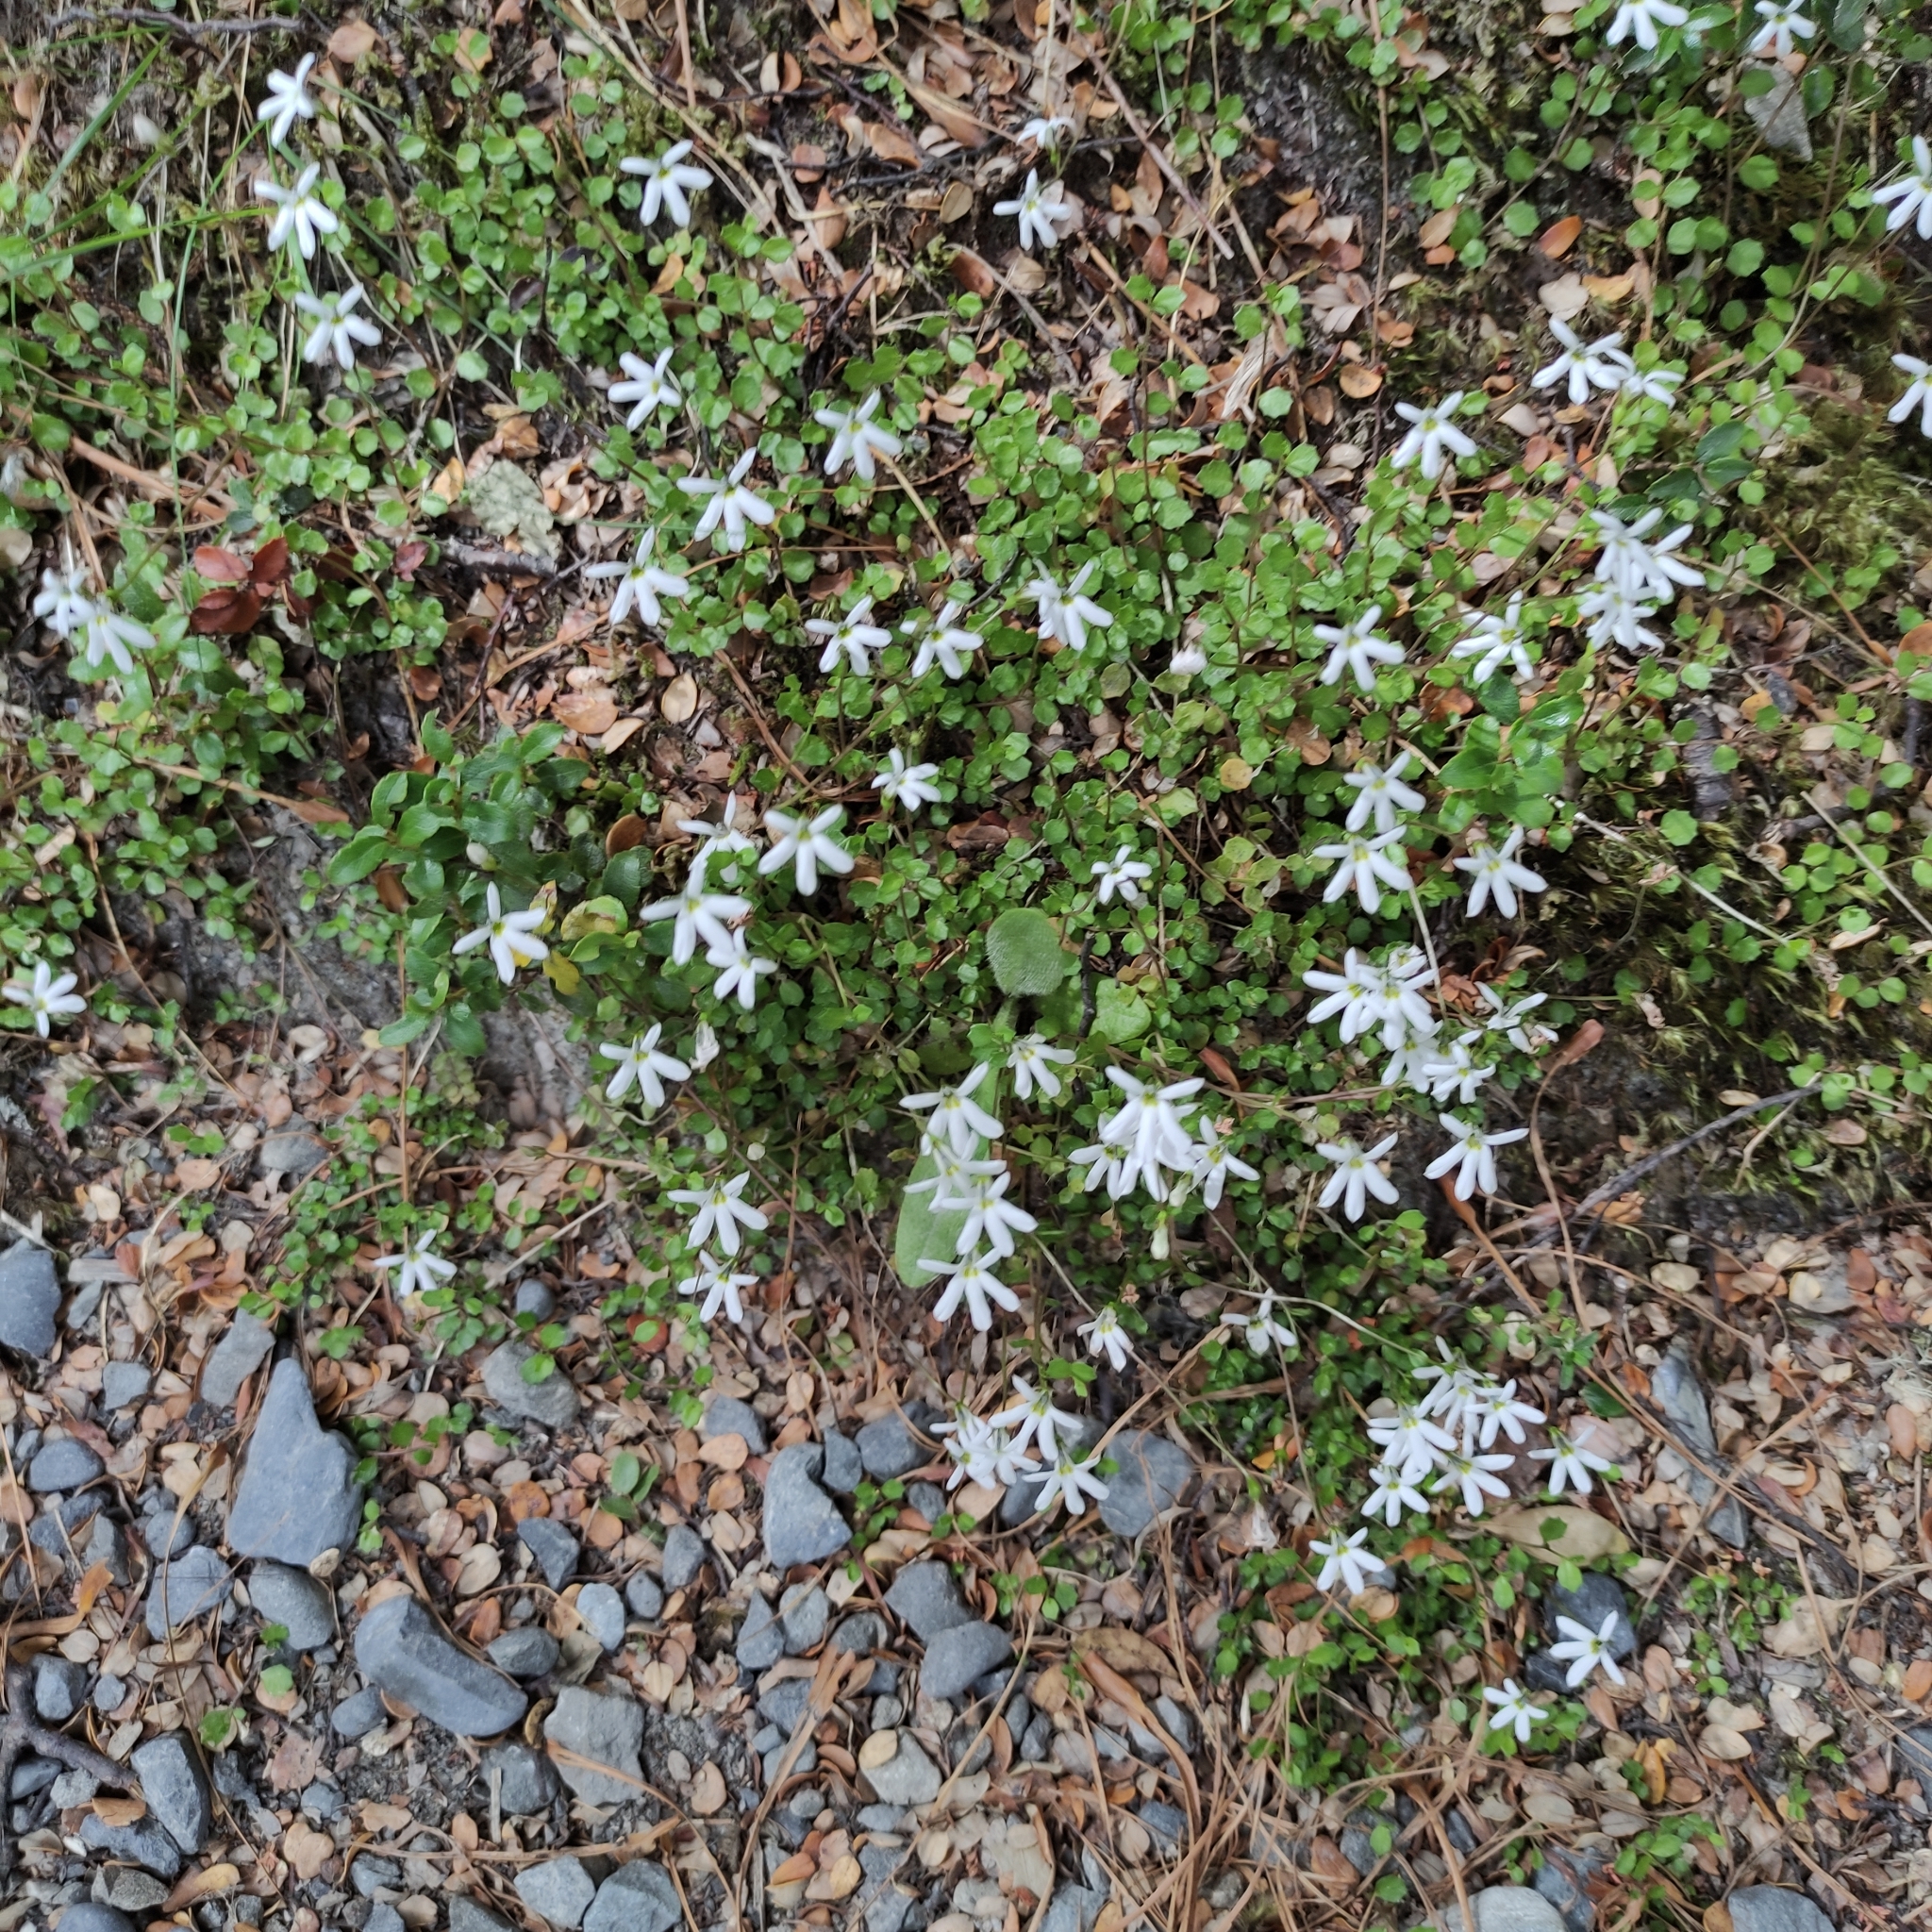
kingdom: Plantae
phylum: Tracheophyta
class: Magnoliopsida
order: Asterales
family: Campanulaceae
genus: Lobelia
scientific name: Lobelia angulata
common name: Lawn lobelia
